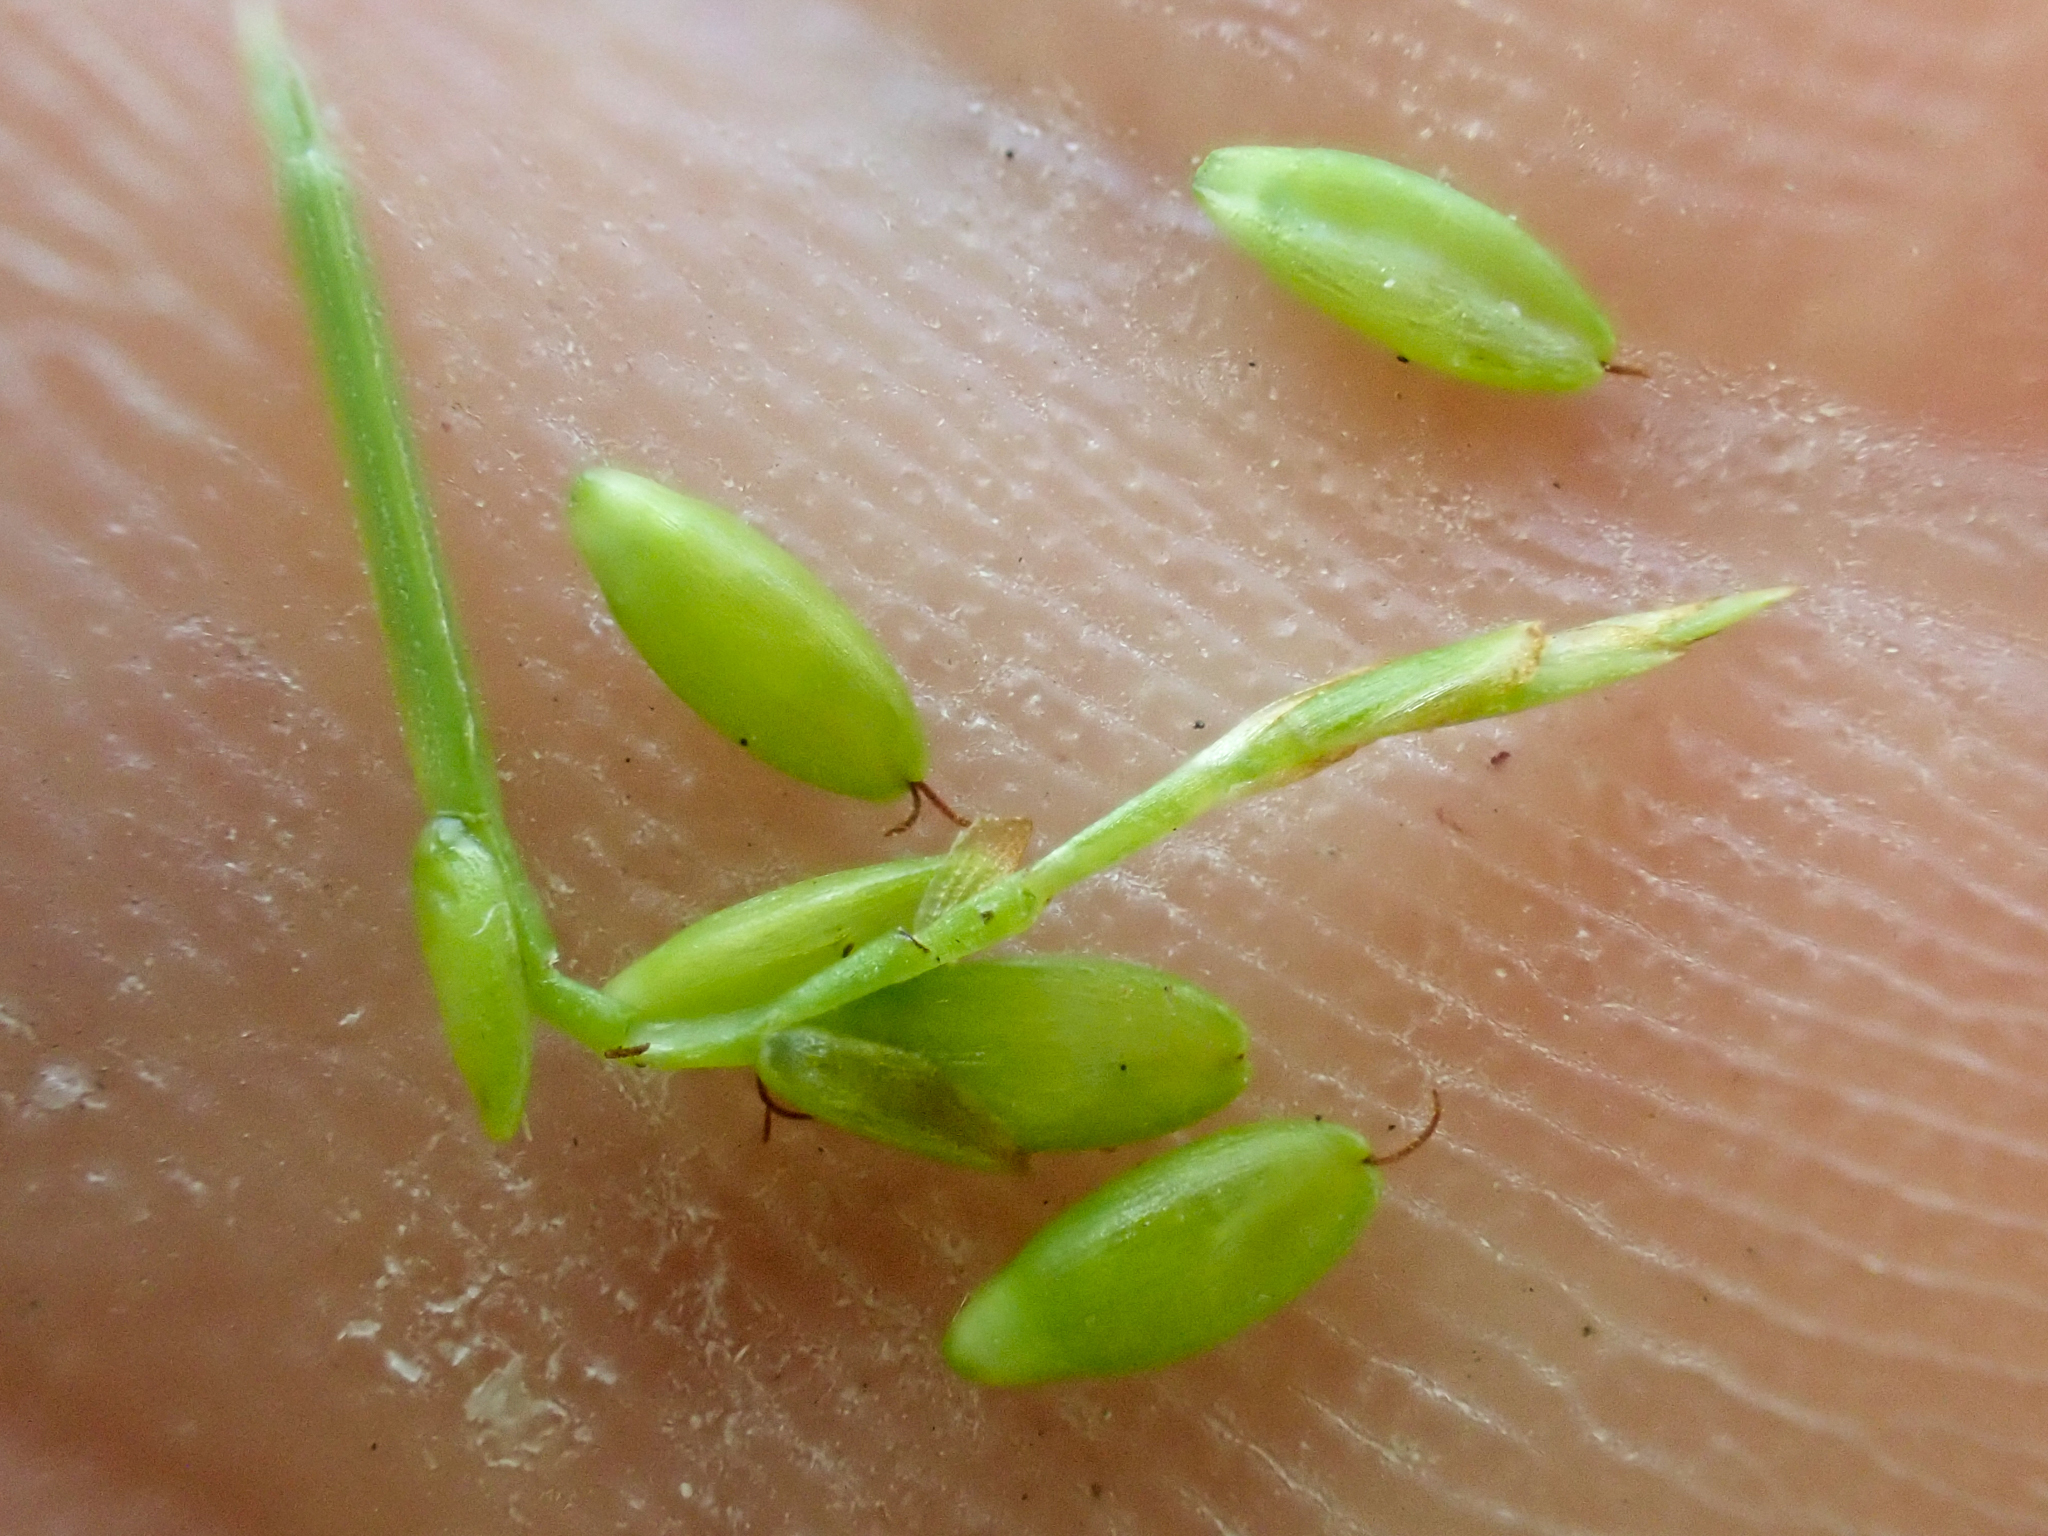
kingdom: Plantae
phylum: Tracheophyta
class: Liliopsida
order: Poales
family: Cyperaceae
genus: Carex
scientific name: Carex leptalea
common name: Bristly-stalked sedge
